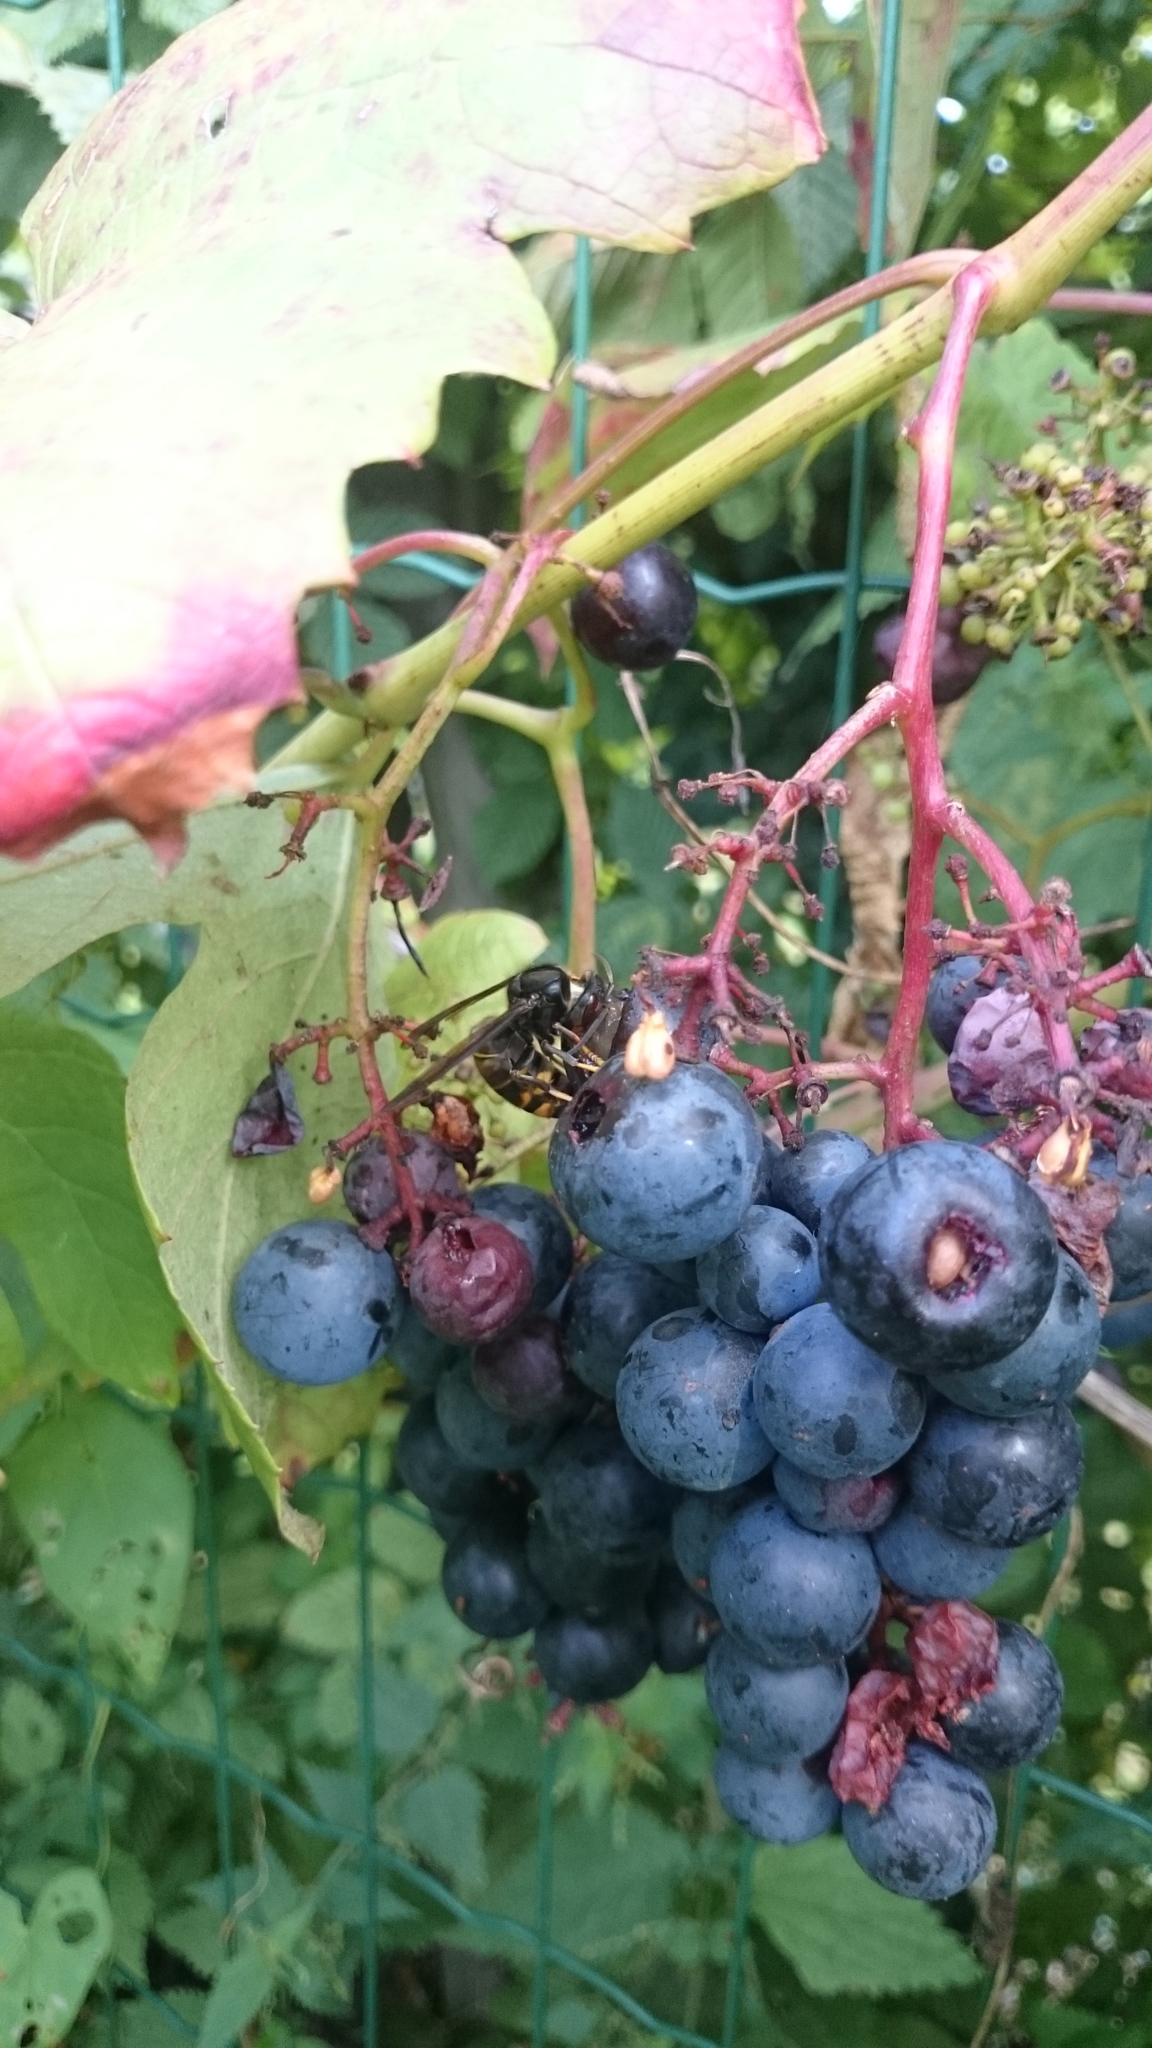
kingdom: Animalia
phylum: Arthropoda
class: Insecta
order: Hymenoptera
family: Vespidae
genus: Vespa
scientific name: Vespa velutina
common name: Asian hornet
